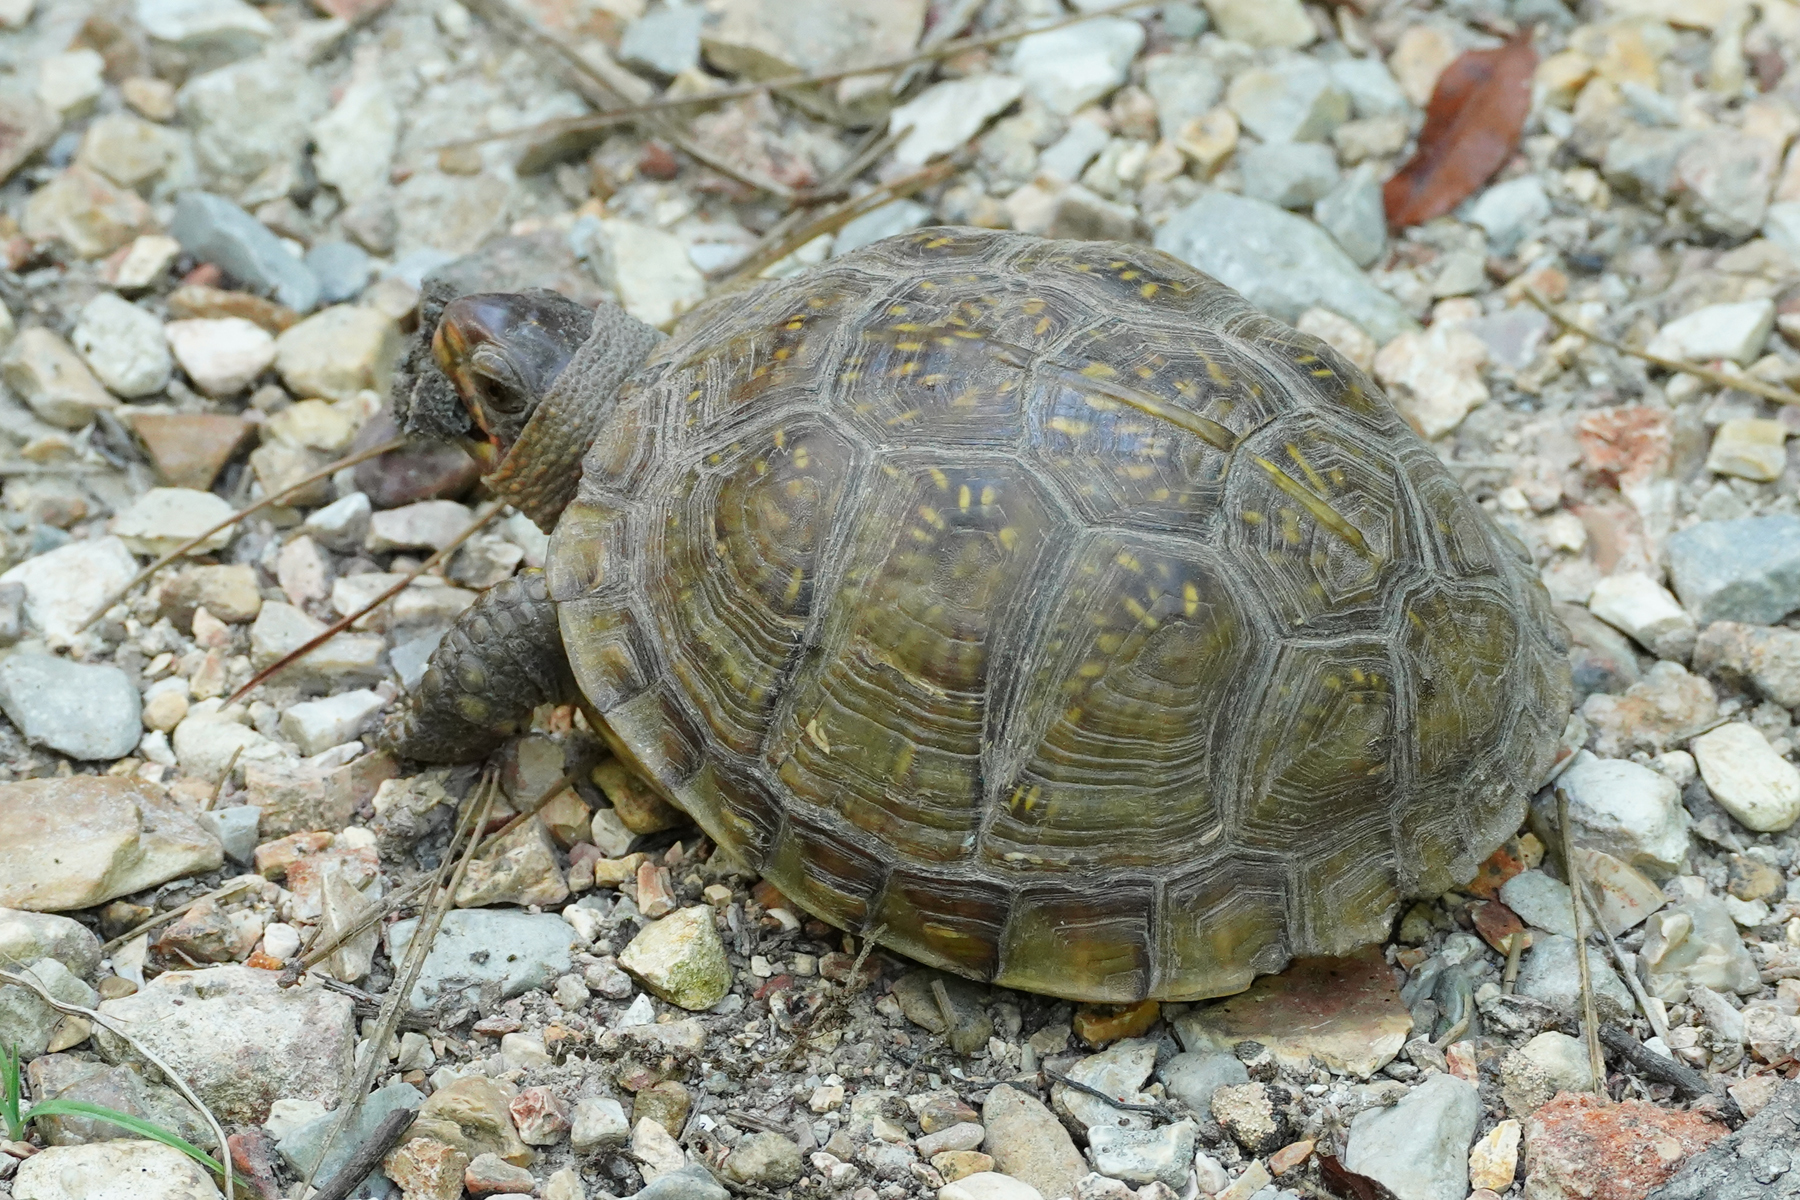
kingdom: Animalia
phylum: Chordata
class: Testudines
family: Emydidae
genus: Terrapene
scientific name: Terrapene carolina
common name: Common box turtle
